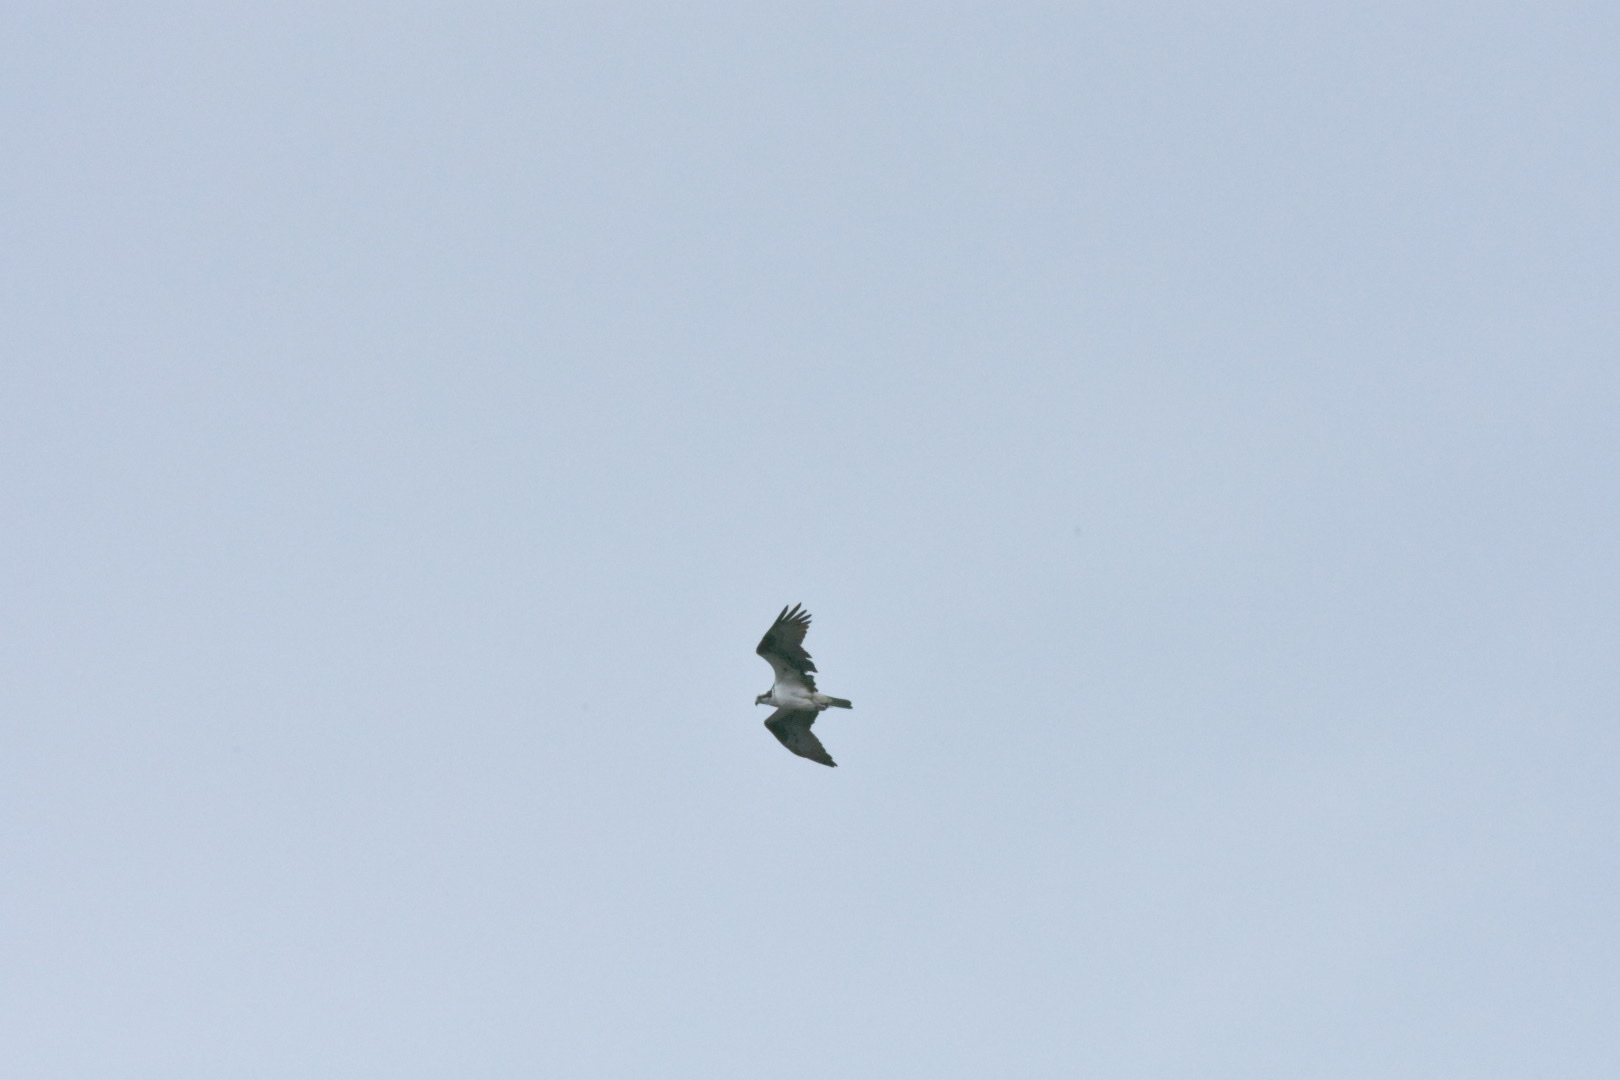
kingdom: Animalia
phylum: Chordata
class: Aves
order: Accipitriformes
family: Pandionidae
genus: Pandion
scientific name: Pandion haliaetus
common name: Osprey
